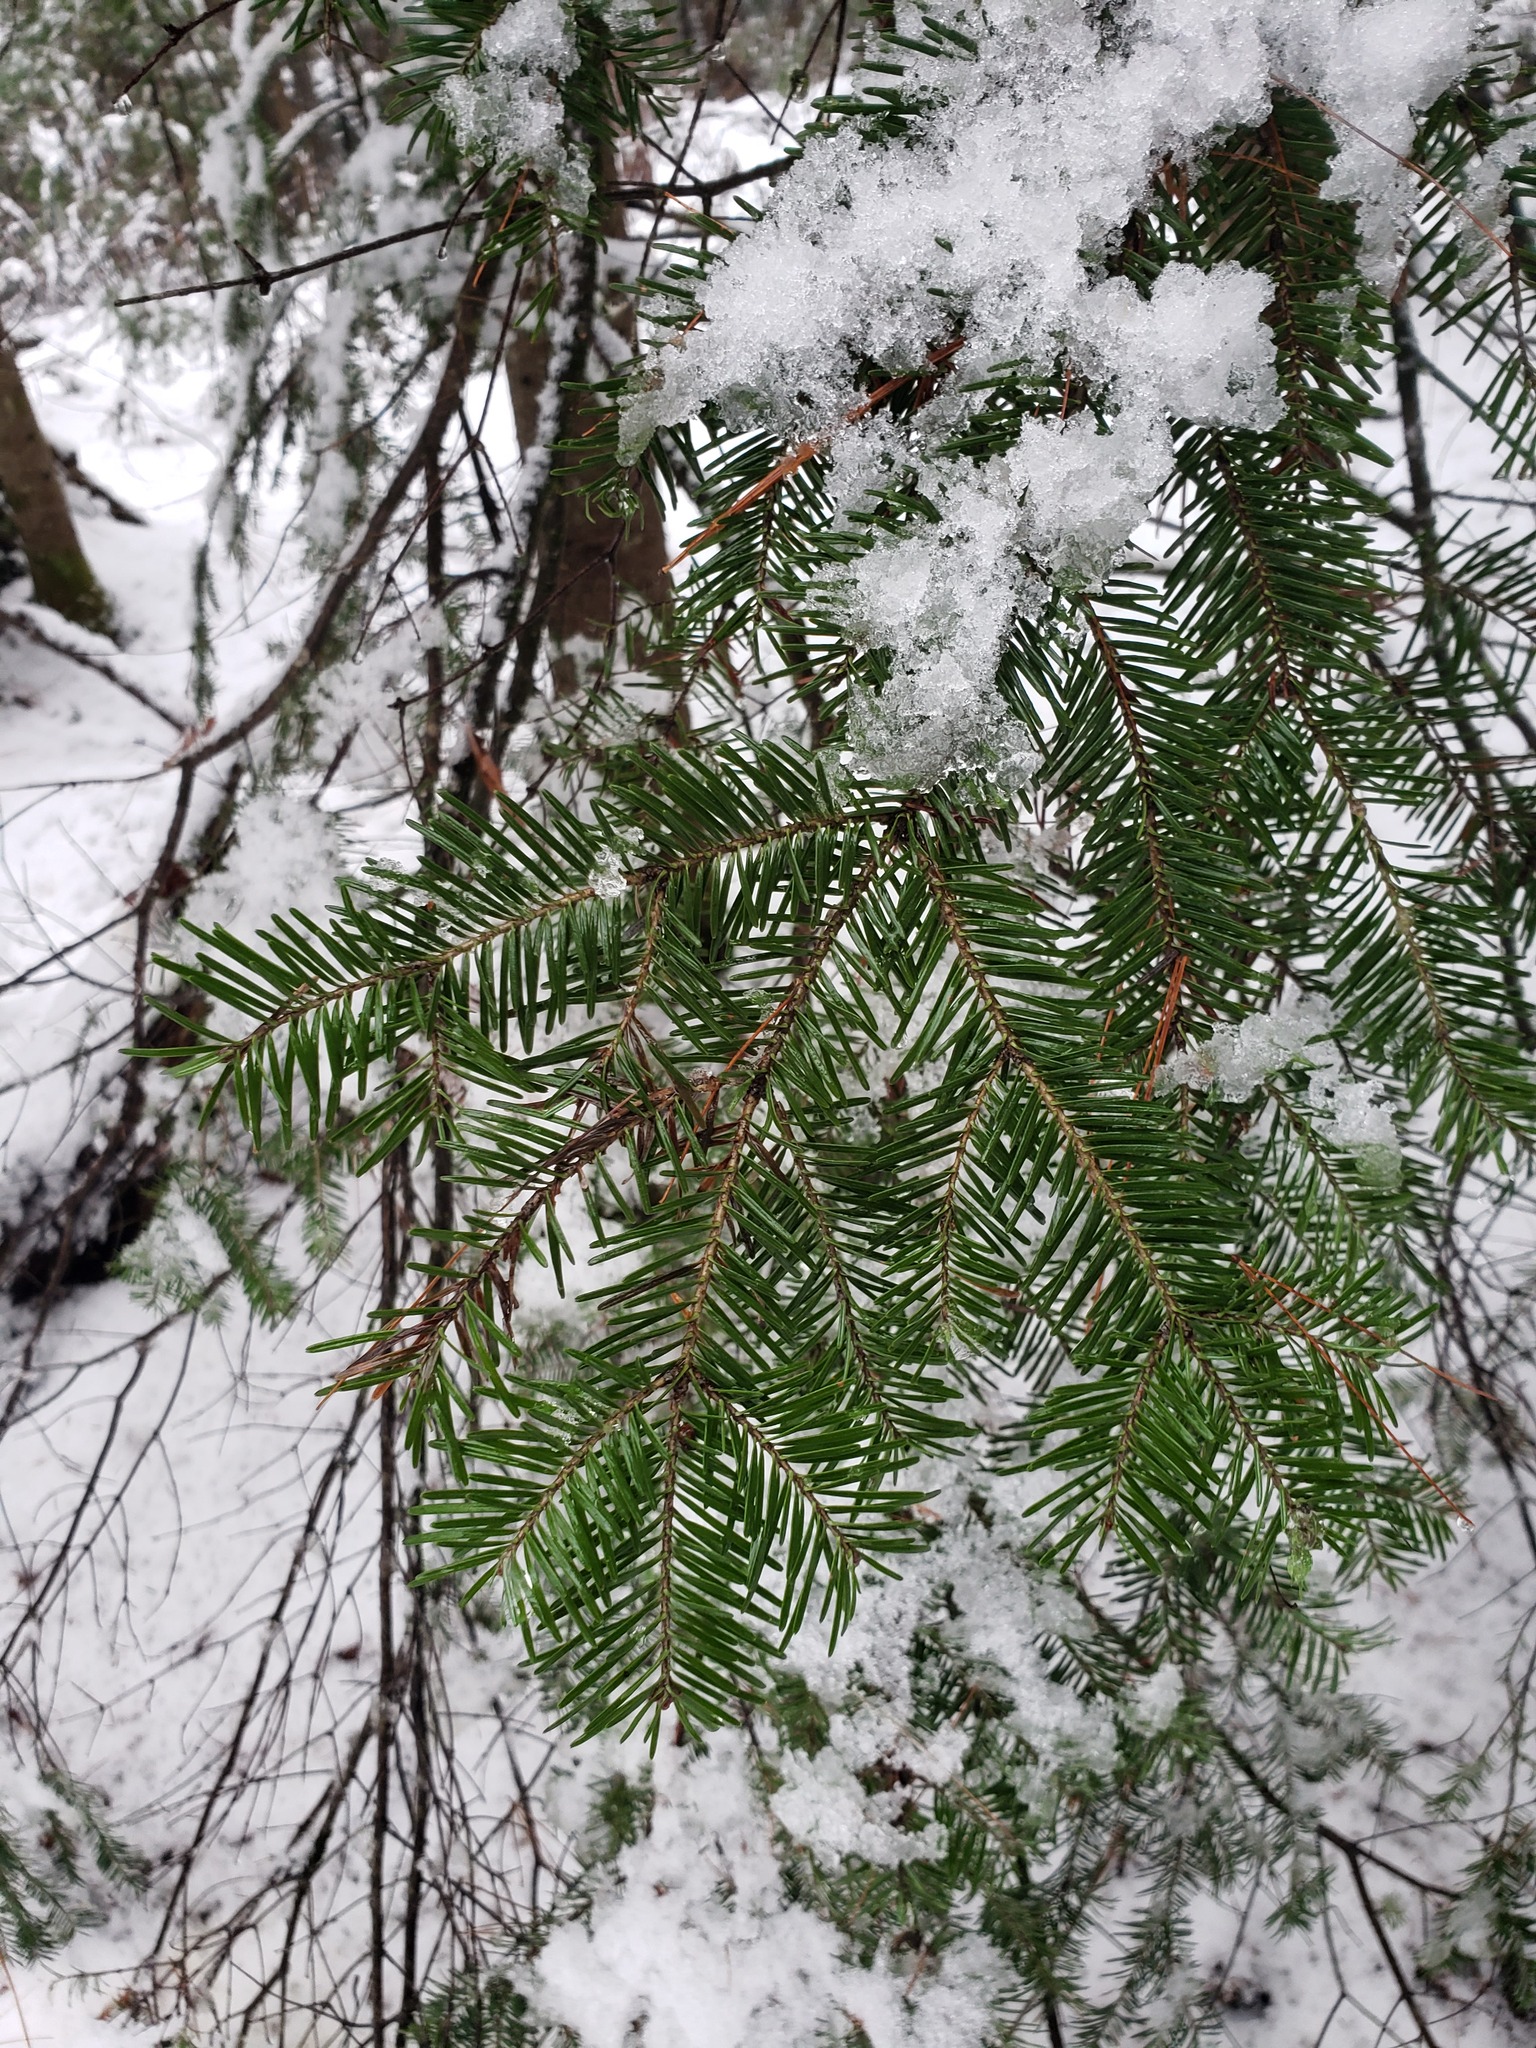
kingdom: Plantae
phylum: Tracheophyta
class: Pinopsida
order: Pinales
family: Pinaceae
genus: Abies
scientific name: Abies balsamea
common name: Balsam fir
